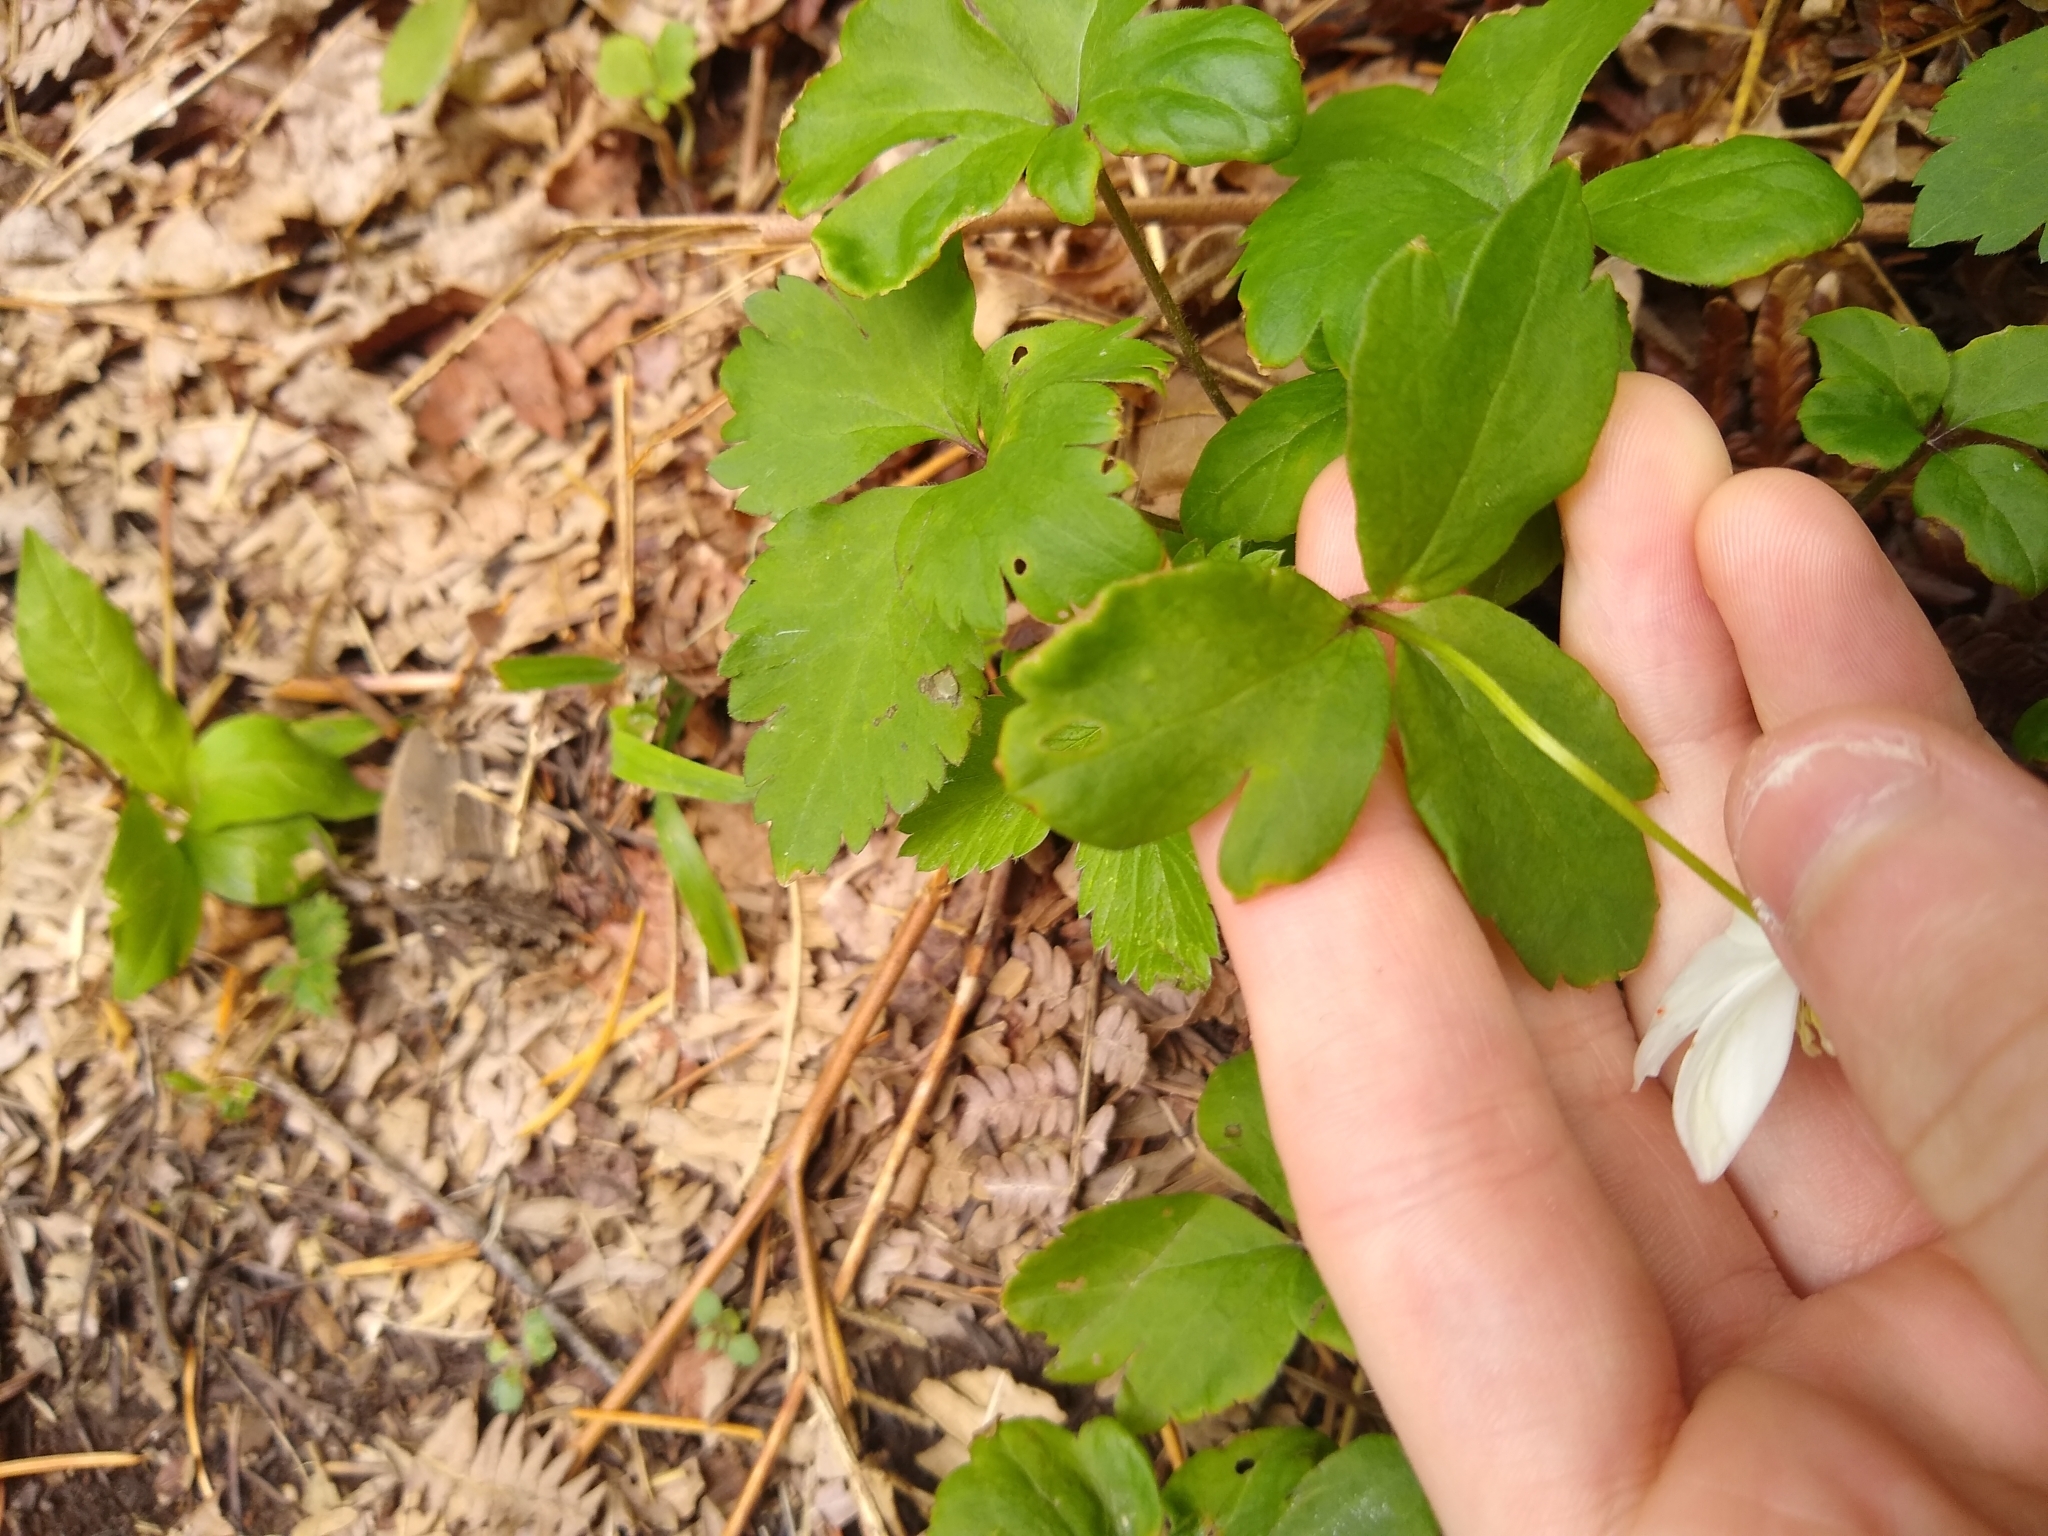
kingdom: Plantae
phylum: Tracheophyta
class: Magnoliopsida
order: Ranunculales
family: Ranunculaceae
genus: Anemonastrum
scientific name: Anemonastrum deltoideum
